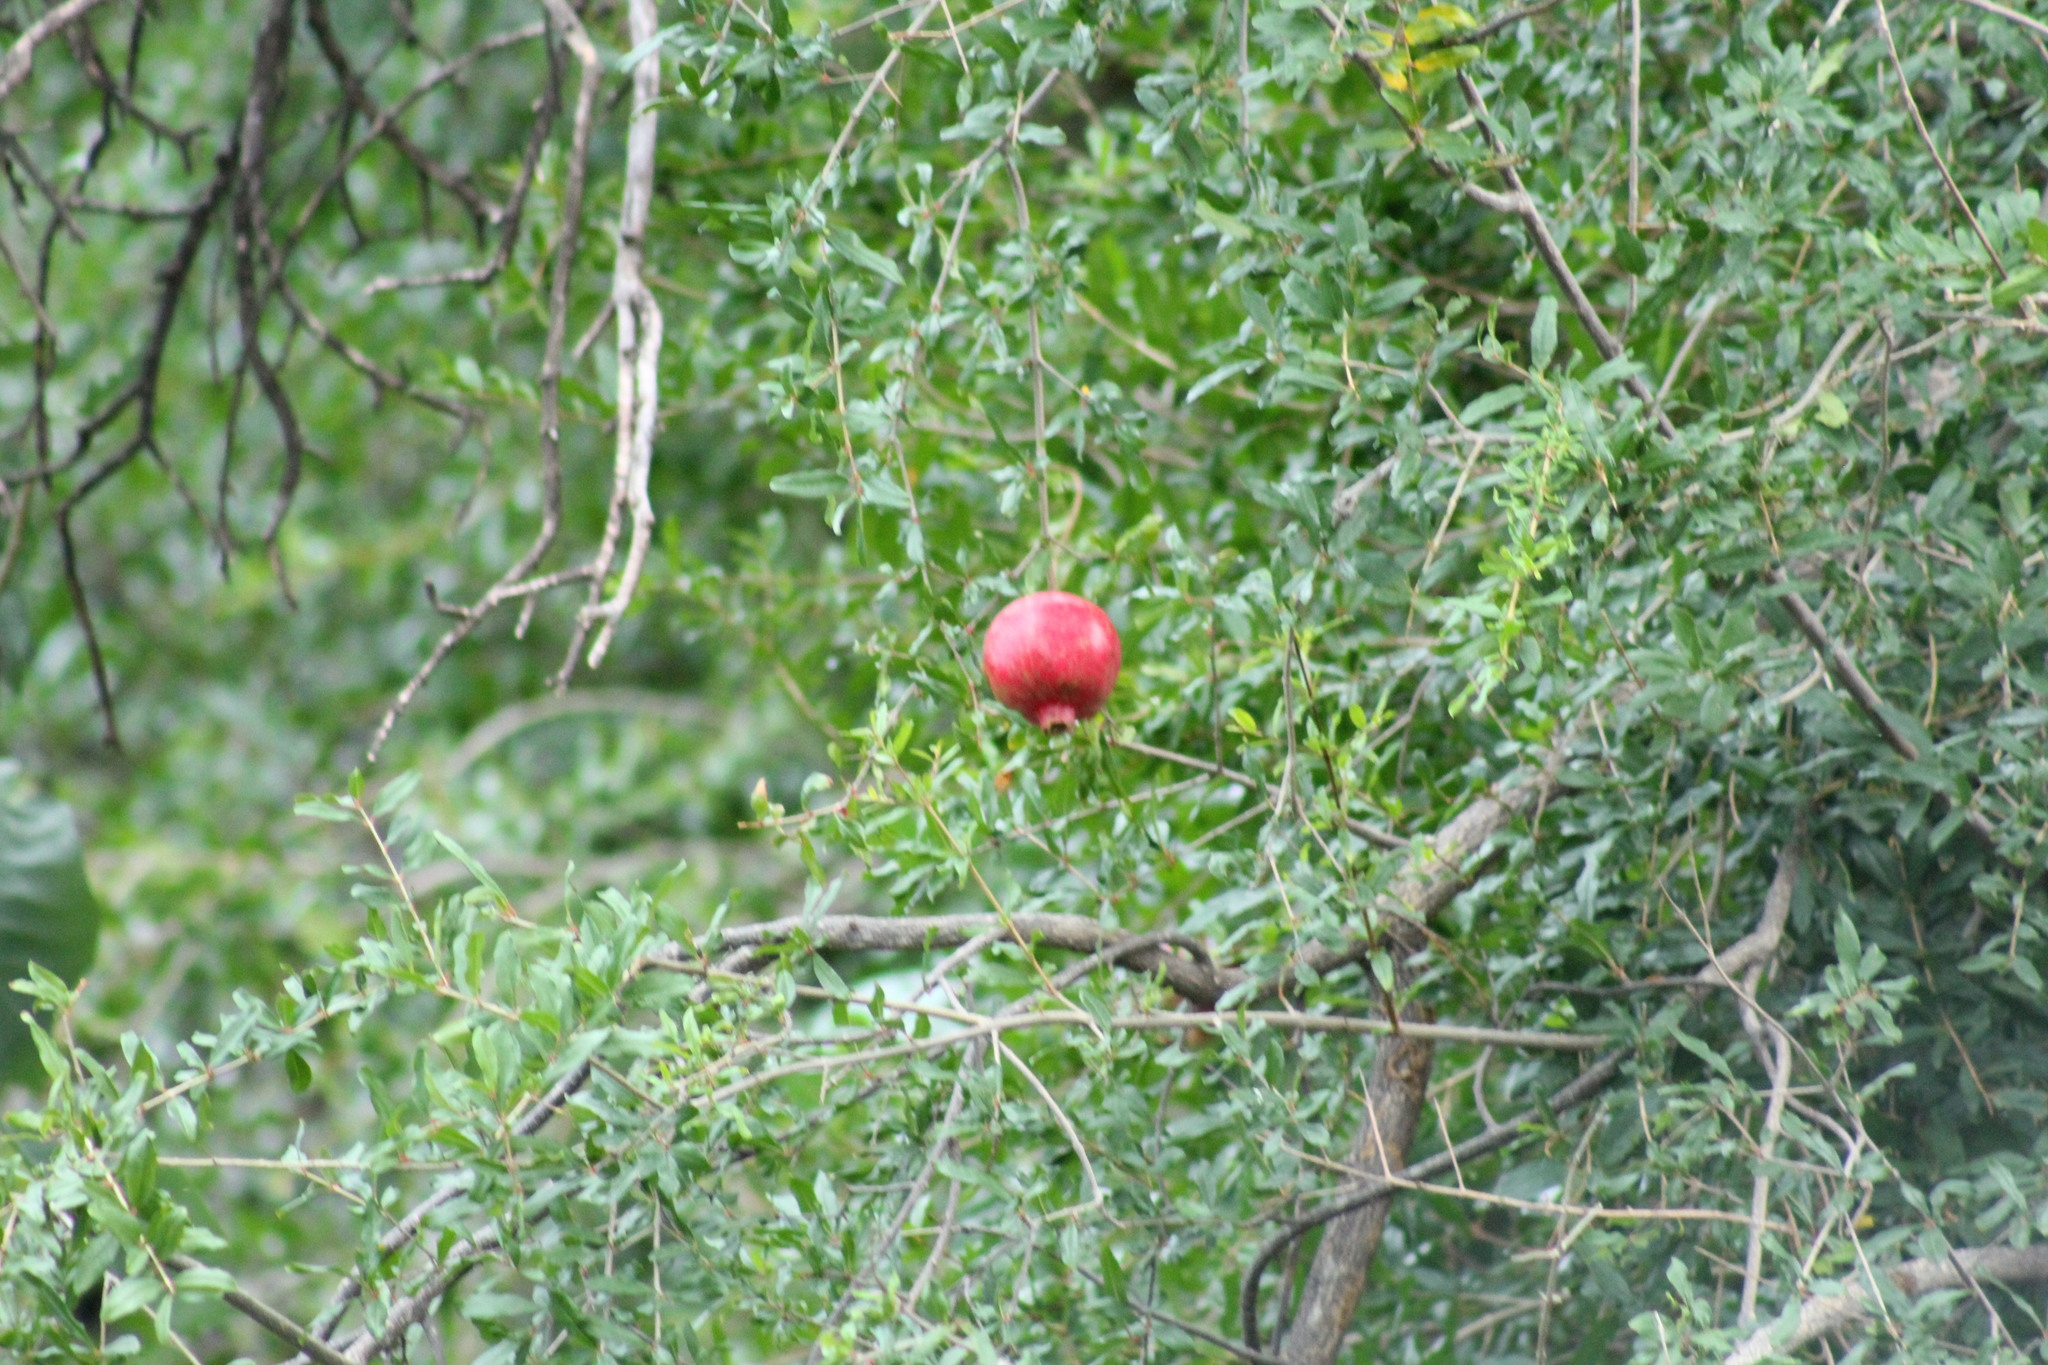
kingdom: Plantae
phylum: Tracheophyta
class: Magnoliopsida
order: Myrtales
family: Lythraceae
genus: Punica
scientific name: Punica granatum
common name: Pomegranate
